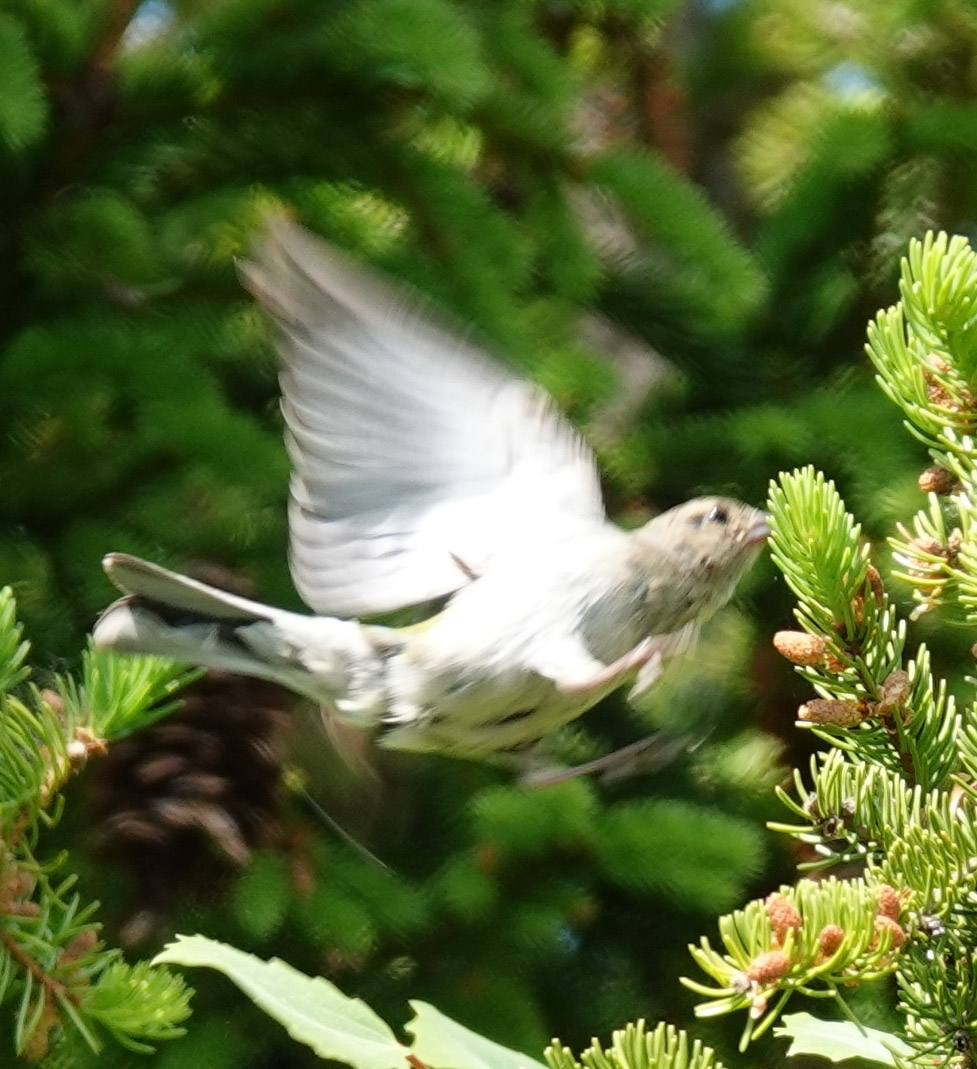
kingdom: Animalia
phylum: Chordata
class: Aves
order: Passeriformes
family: Fringillidae
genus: Fringilla
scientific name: Fringilla coelebs
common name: Common chaffinch
